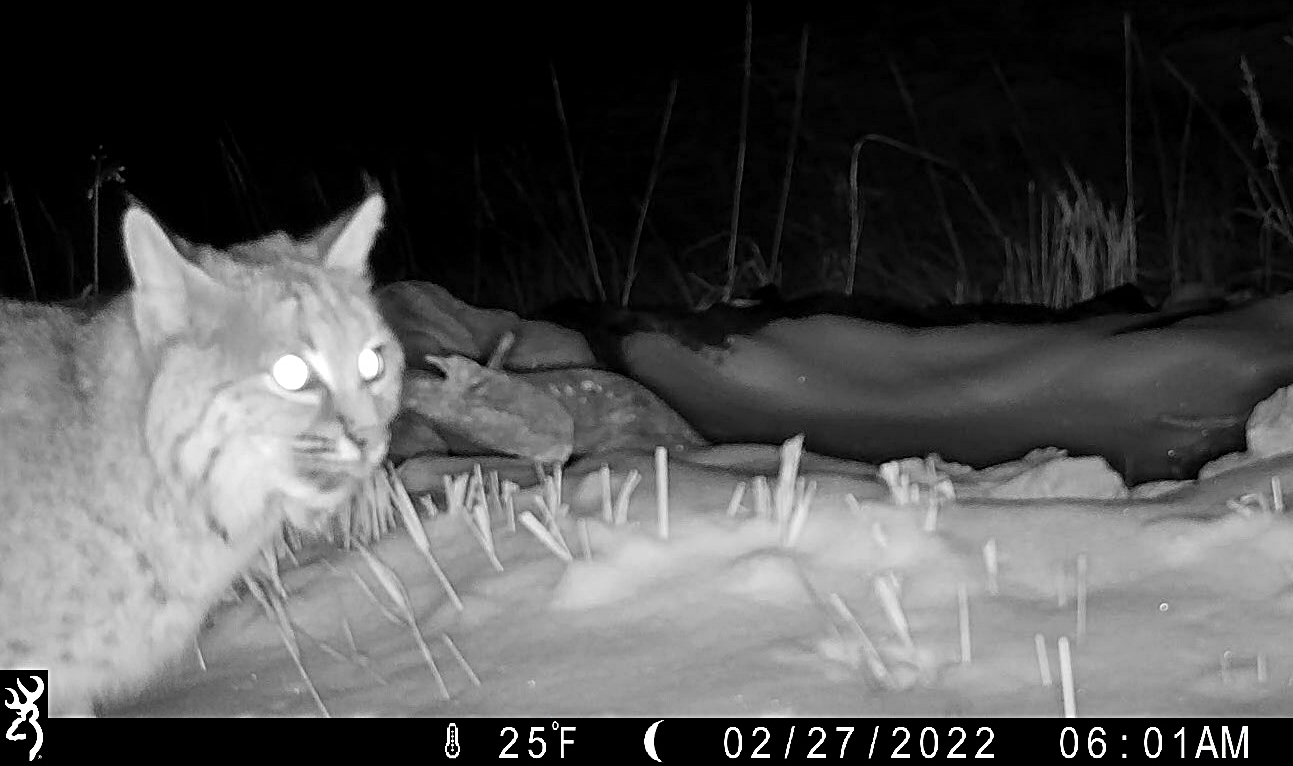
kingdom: Animalia
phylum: Chordata
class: Mammalia
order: Carnivora
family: Felidae
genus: Lynx
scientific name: Lynx rufus
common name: Bobcat
